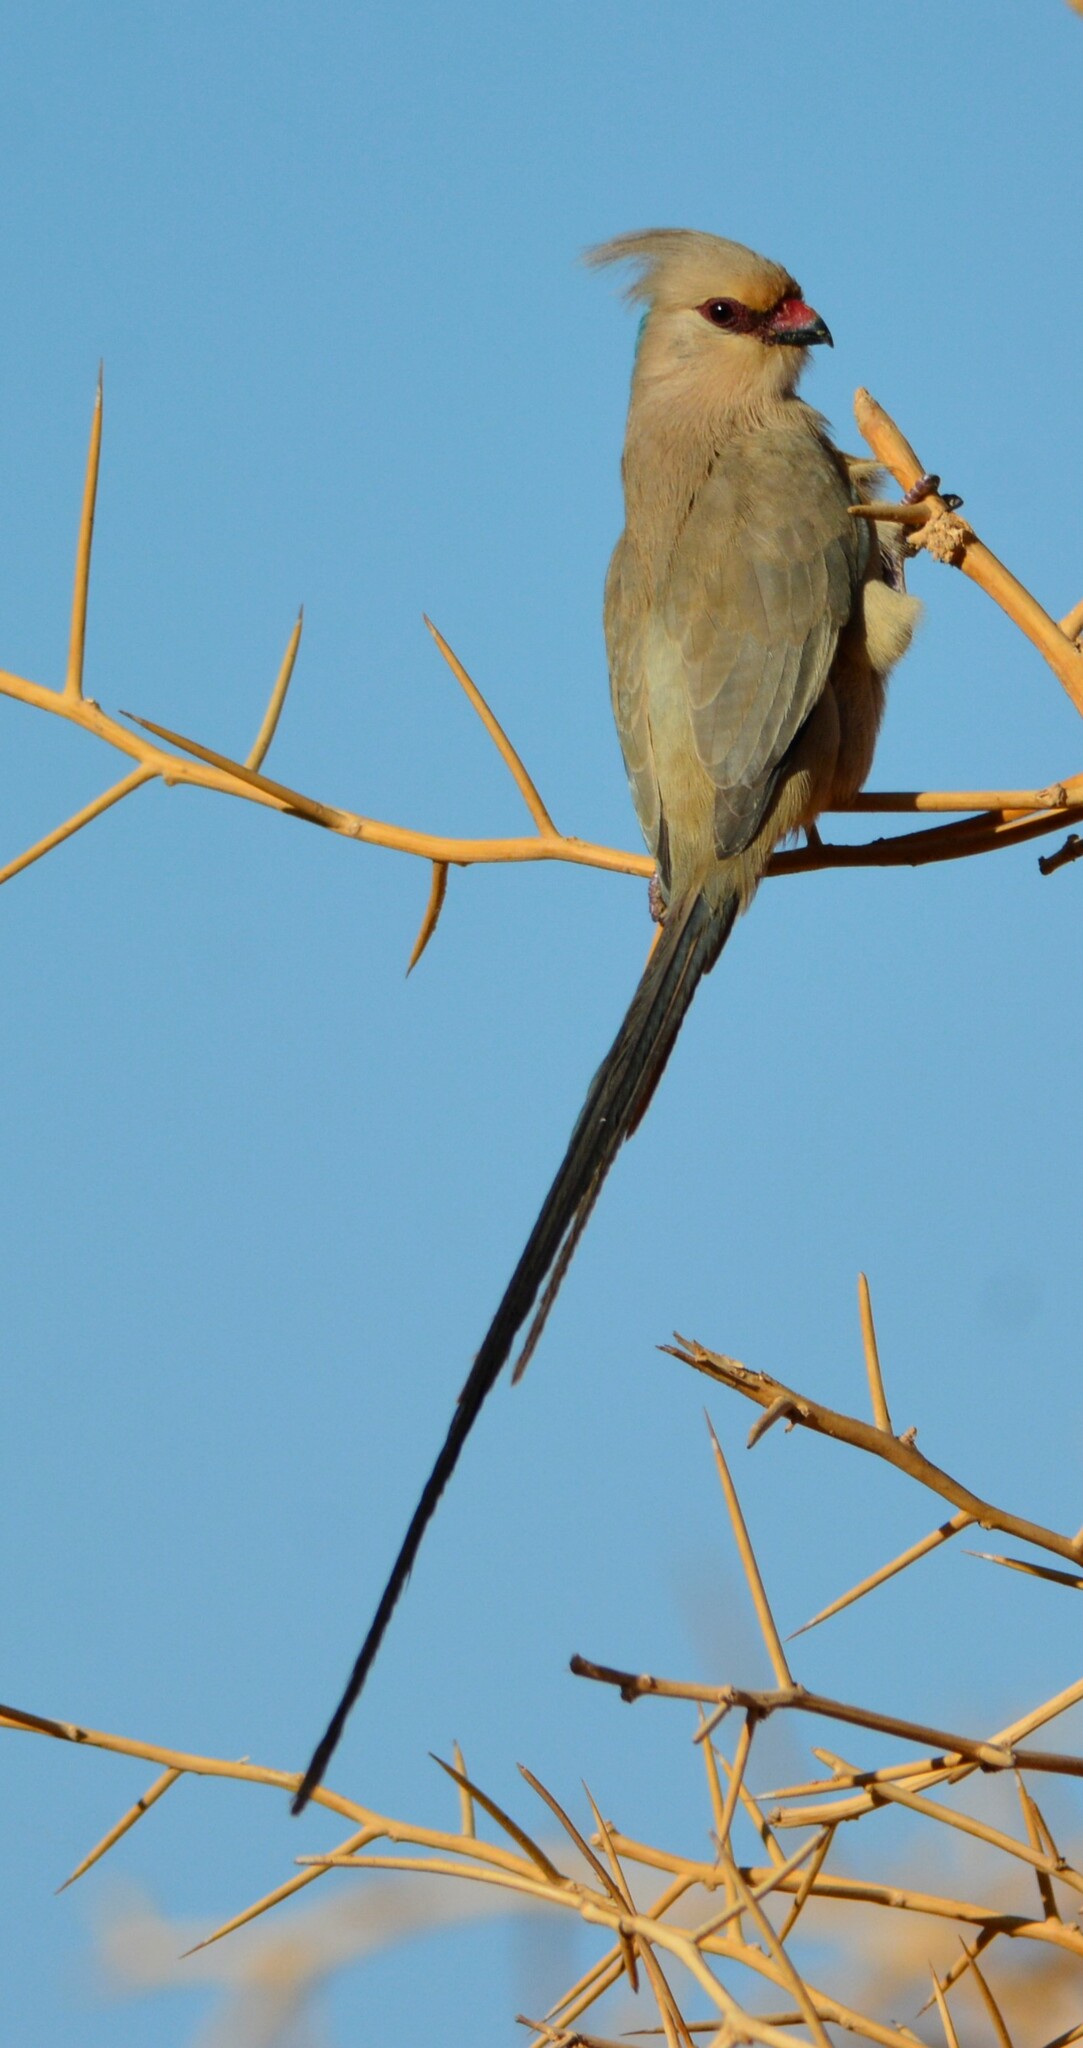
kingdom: Animalia
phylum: Chordata
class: Aves
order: Coliiformes
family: Coliidae
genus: Urocolius
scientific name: Urocolius macrourus
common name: Blue-naped mousebird
